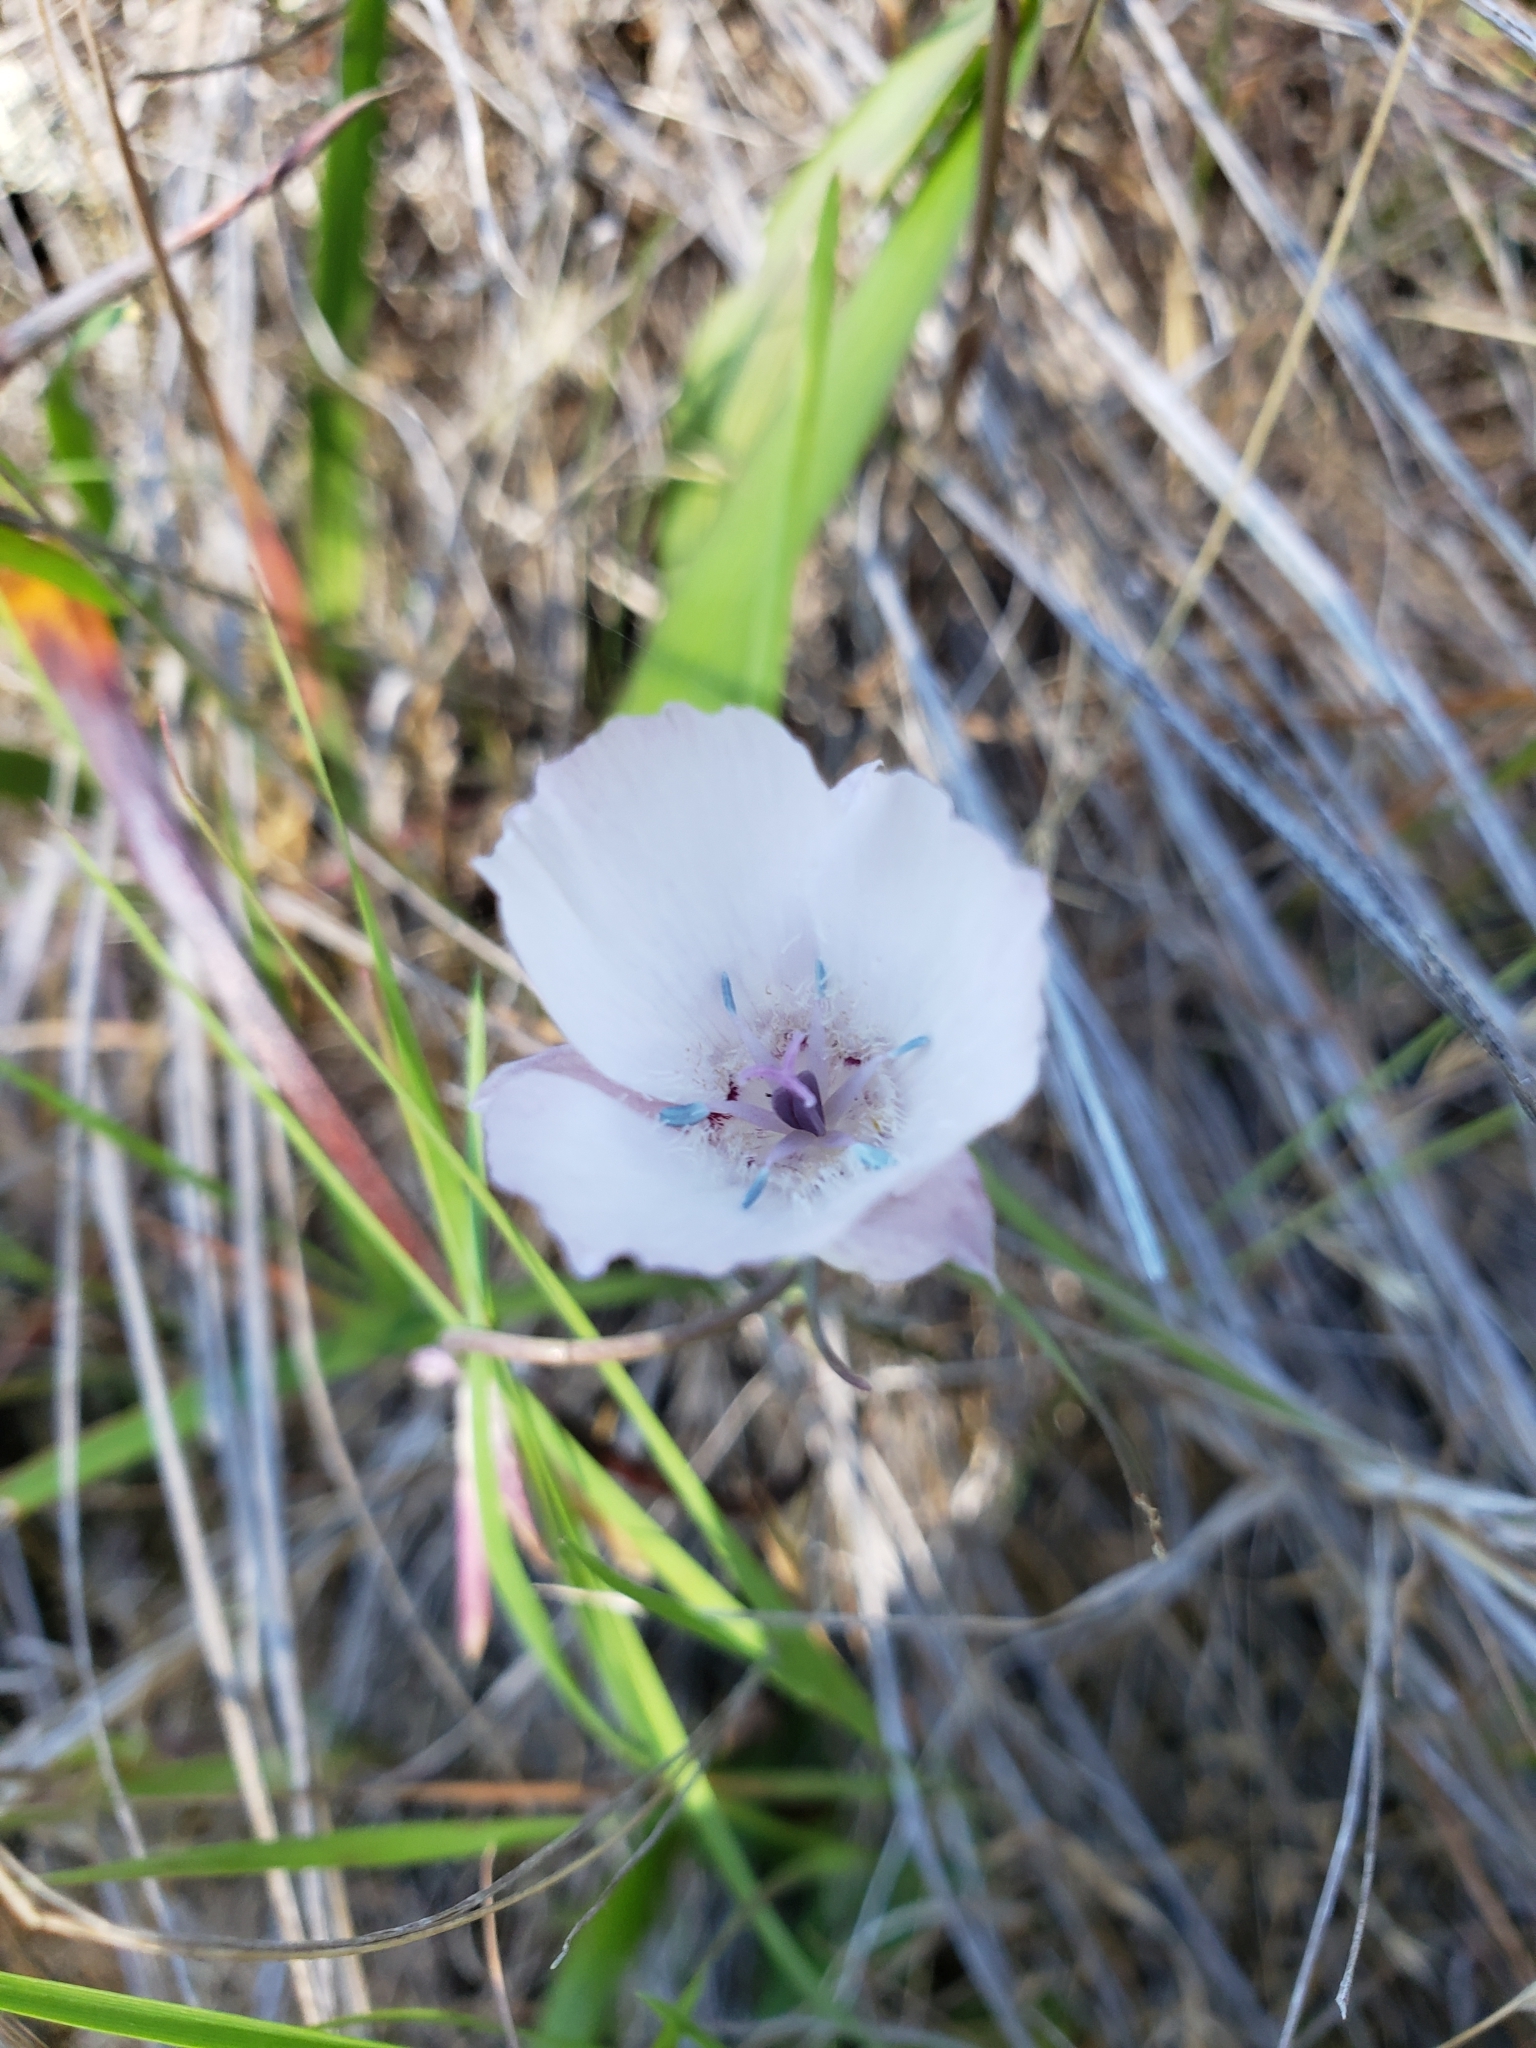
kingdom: Plantae
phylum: Tracheophyta
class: Liliopsida
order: Liliales
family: Liliaceae
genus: Calochortus
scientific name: Calochortus umbellatus
